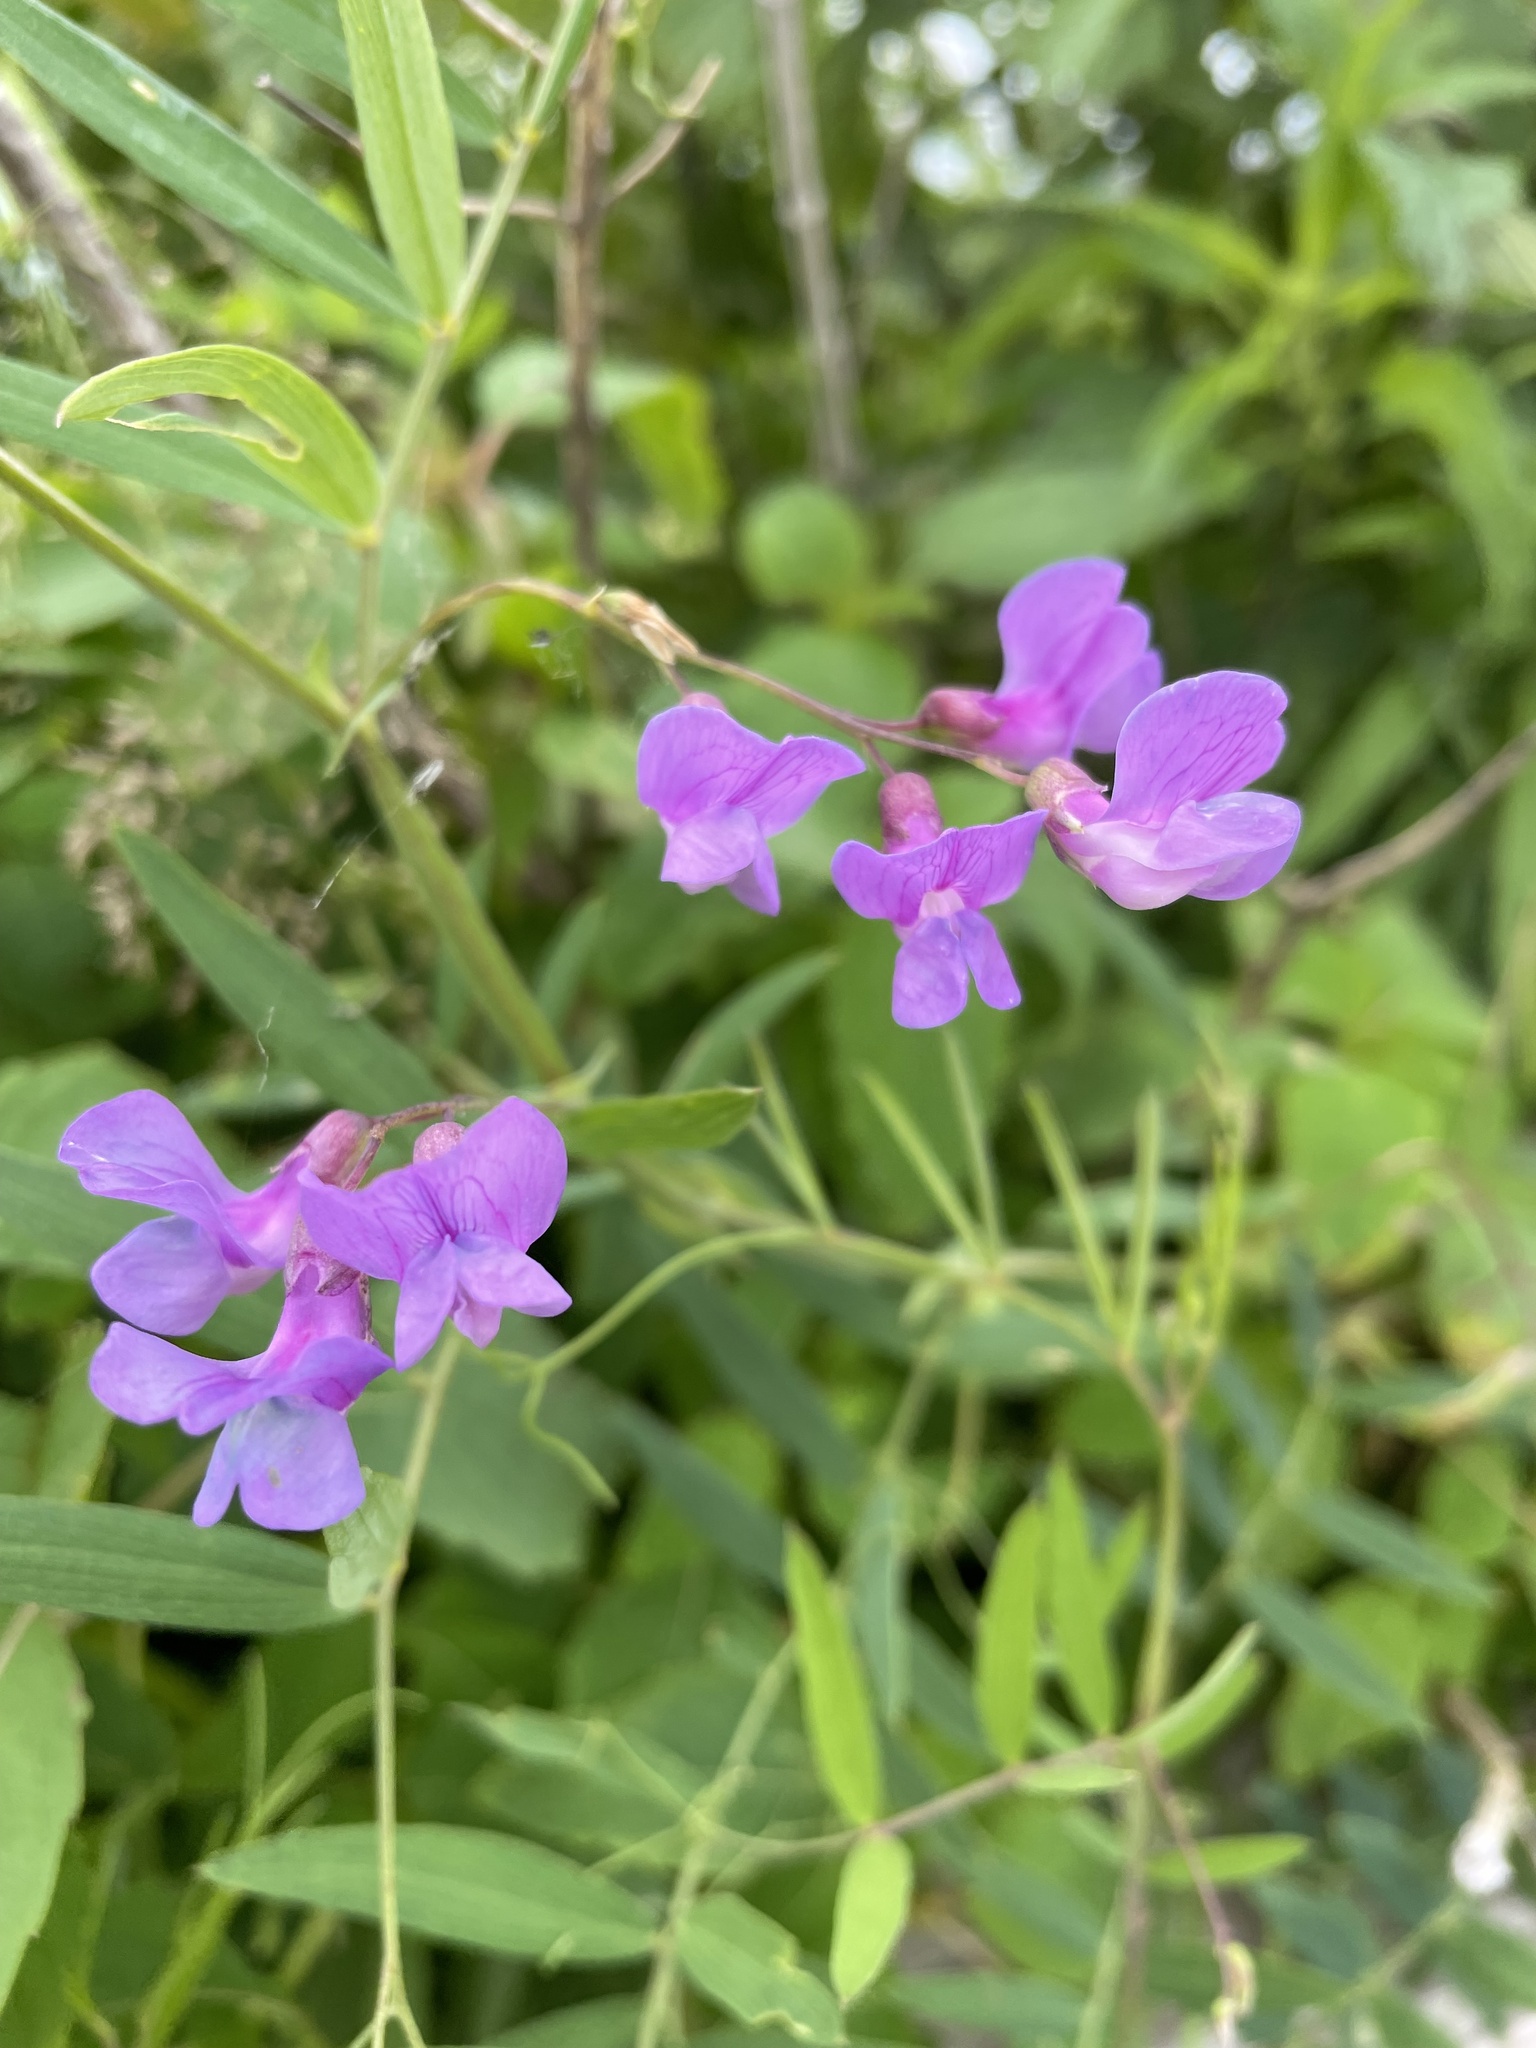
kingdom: Plantae
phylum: Tracheophyta
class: Magnoliopsida
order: Fabales
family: Fabaceae
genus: Lathyrus
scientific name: Lathyrus palustris
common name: Marsh pea
